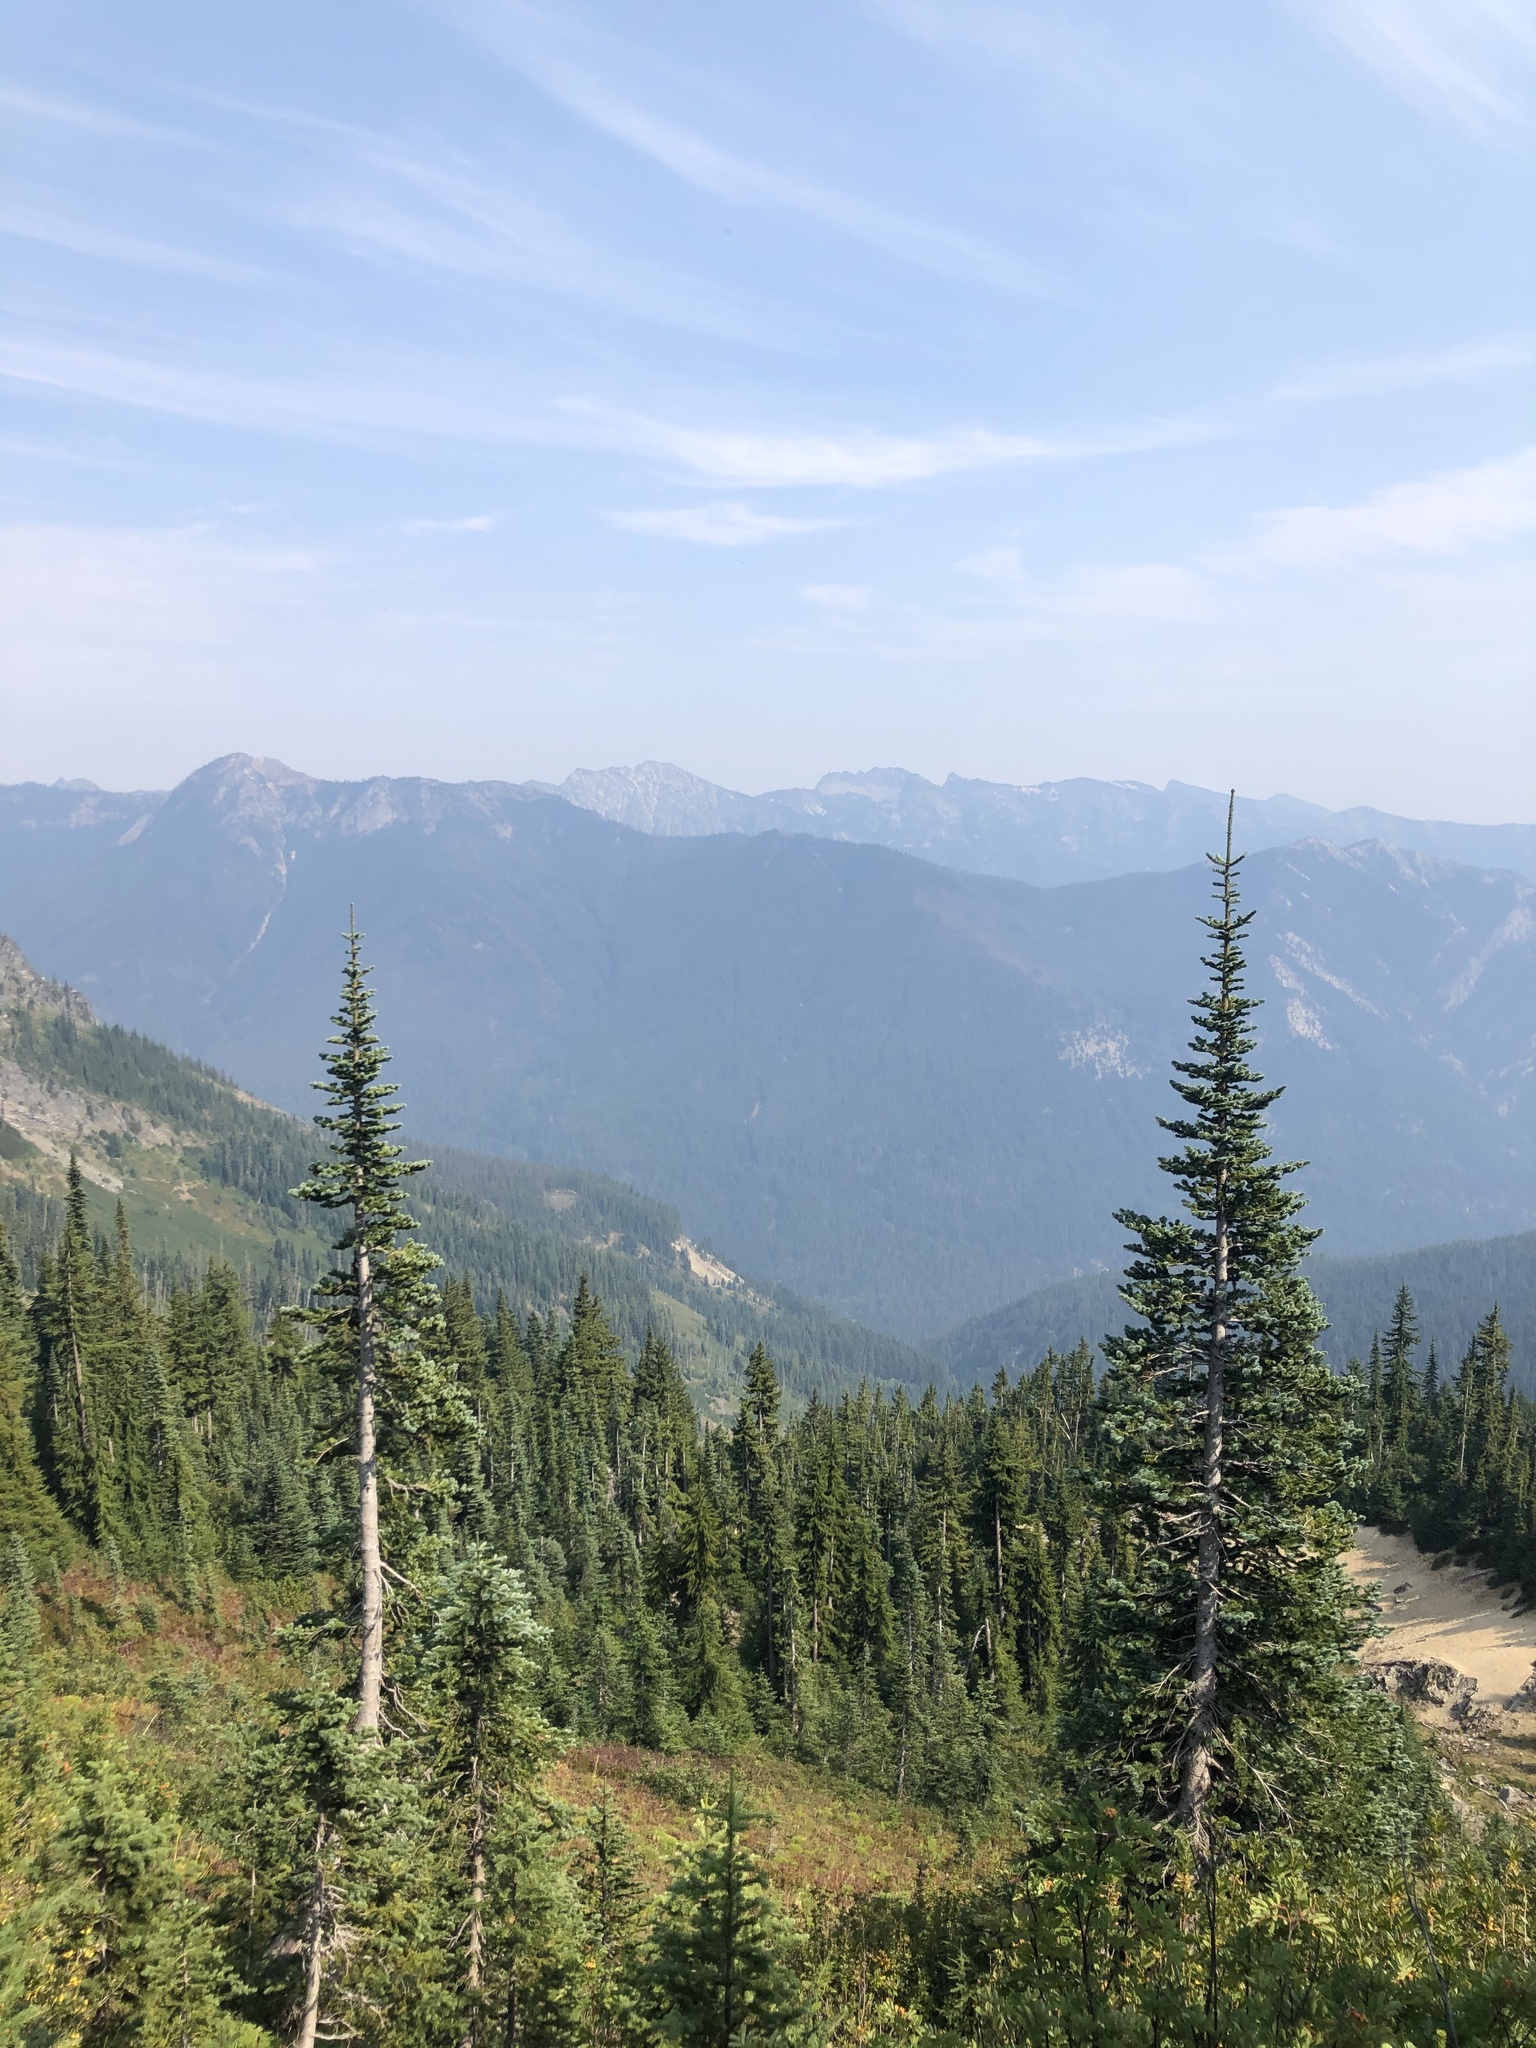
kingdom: Plantae
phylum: Tracheophyta
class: Pinopsida
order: Pinales
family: Pinaceae
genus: Abies
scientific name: Abies lasiocarpa
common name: Subalpine fir
